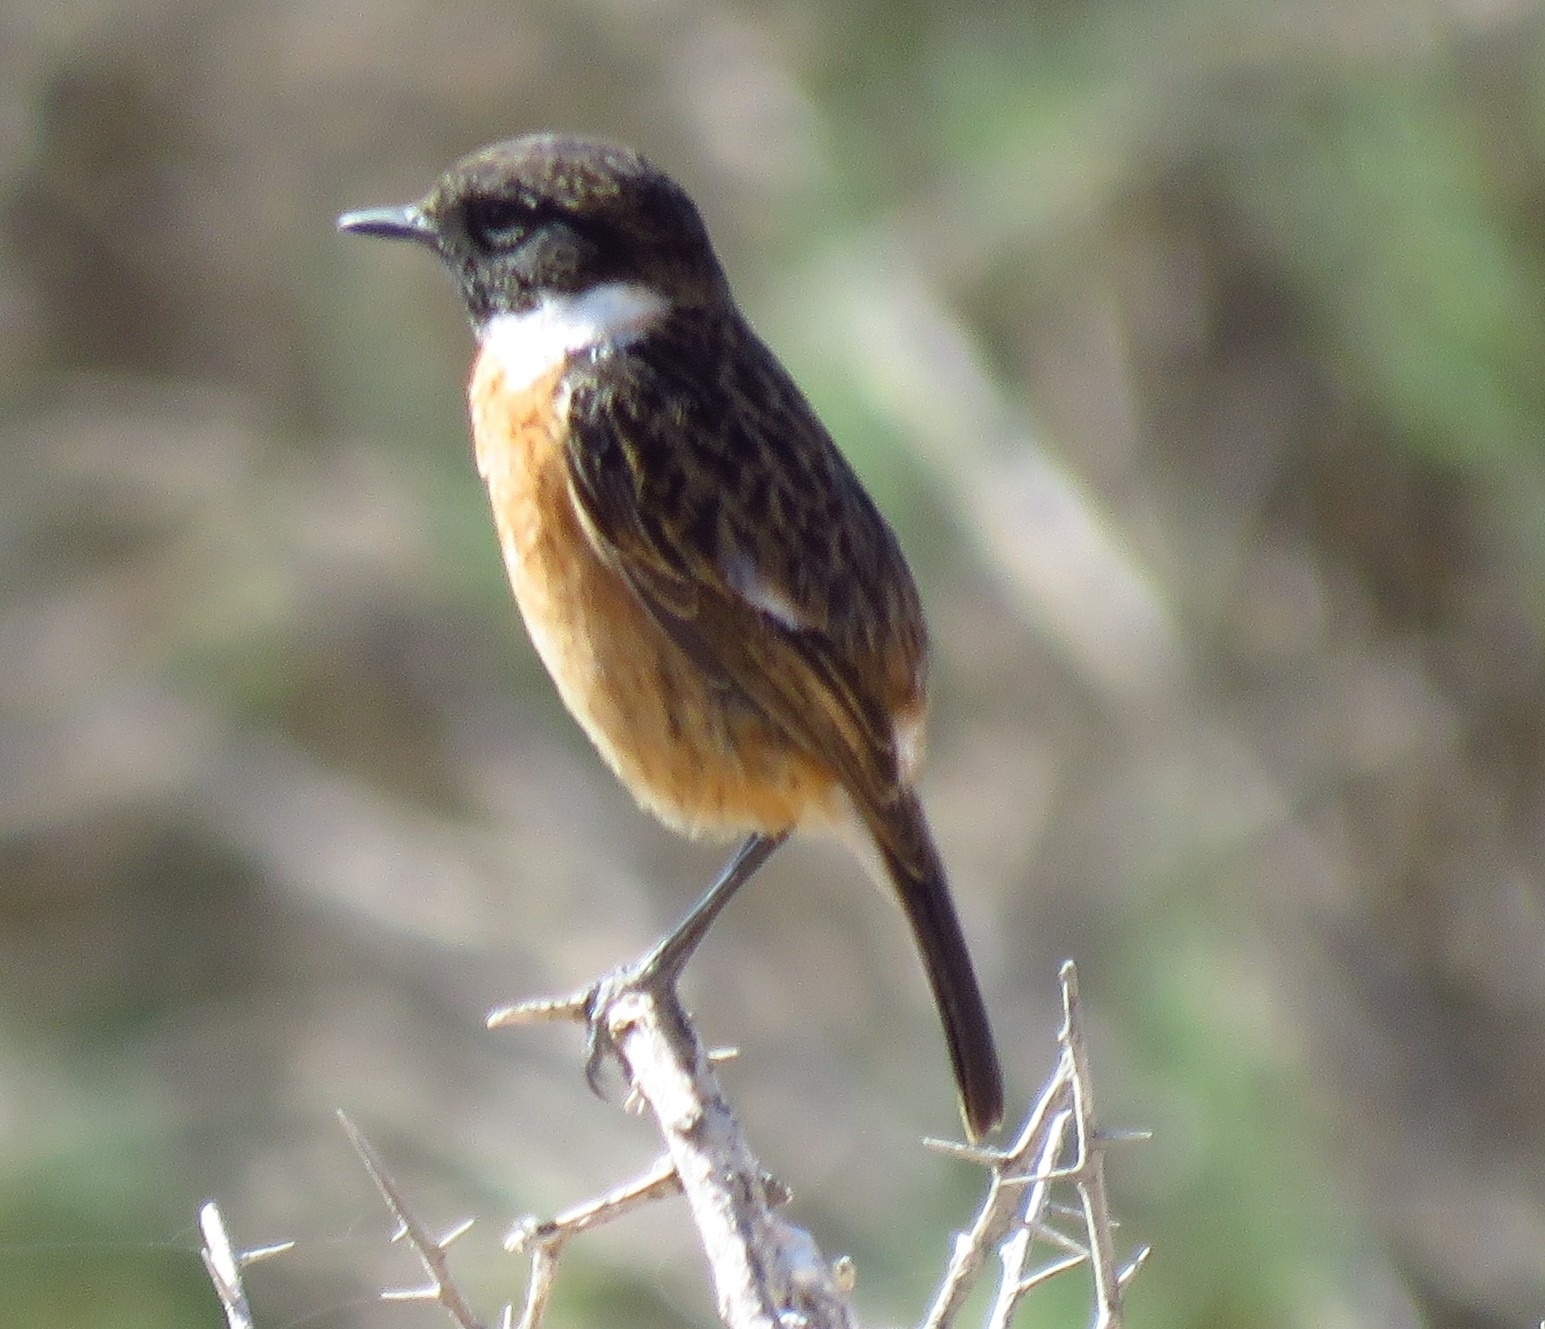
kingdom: Animalia
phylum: Chordata
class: Aves
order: Passeriformes
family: Muscicapidae
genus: Saxicola
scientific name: Saxicola rubicola
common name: European stonechat
